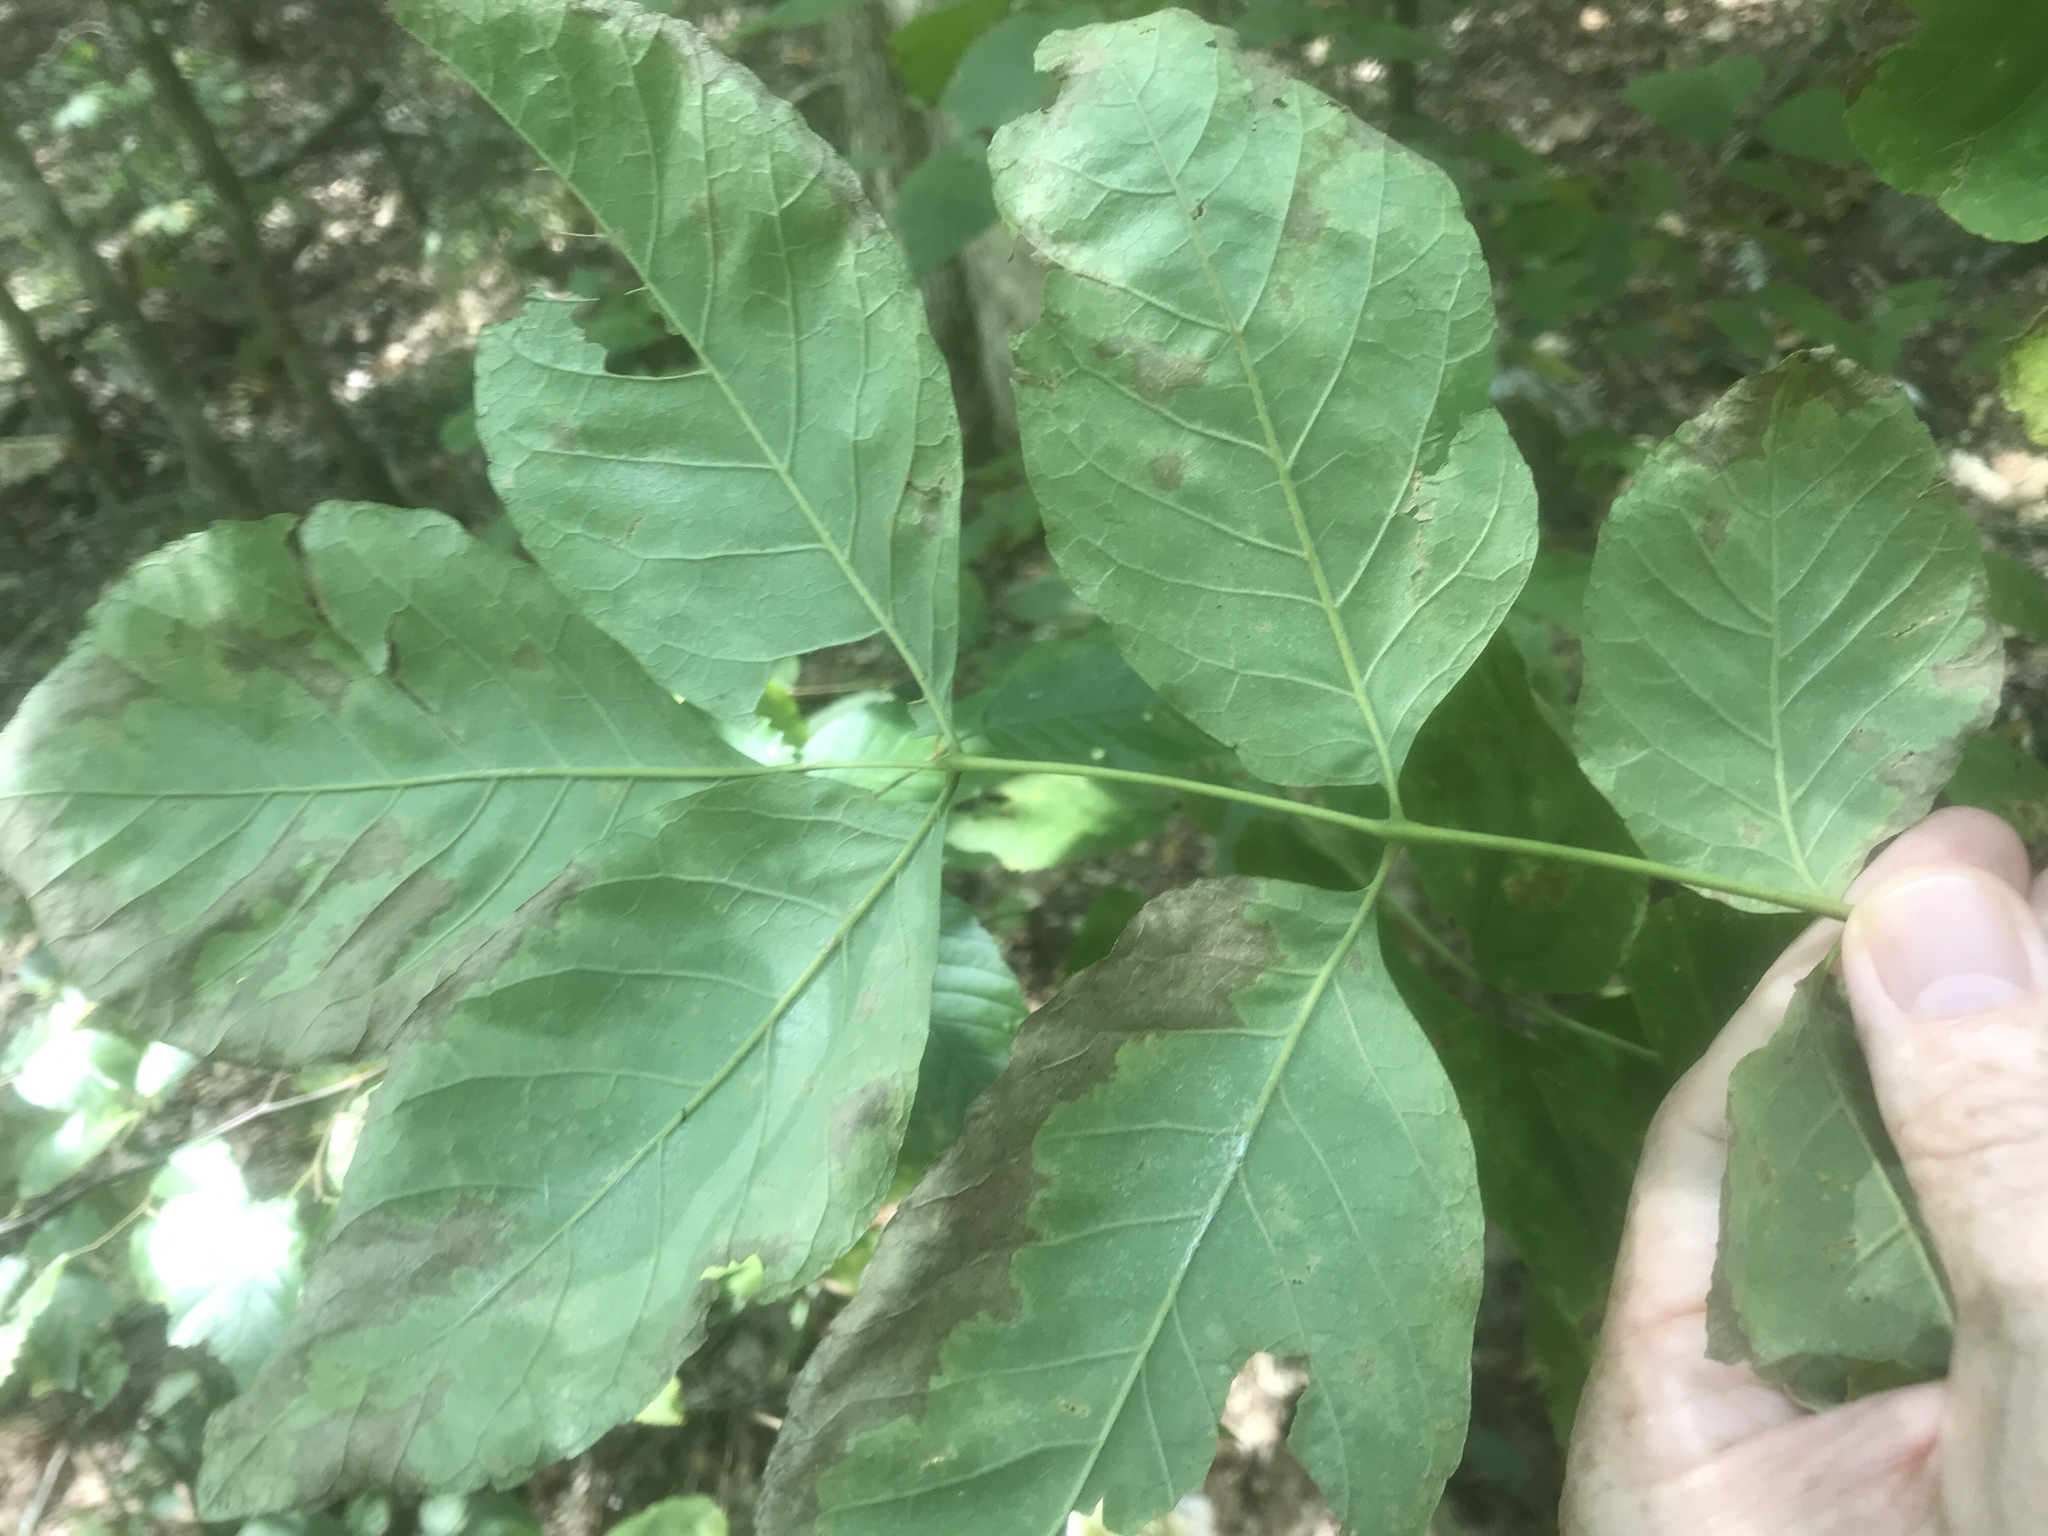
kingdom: Plantae
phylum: Tracheophyta
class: Magnoliopsida
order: Lamiales
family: Oleaceae
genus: Fraxinus
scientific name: Fraxinus americana
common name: White ash
